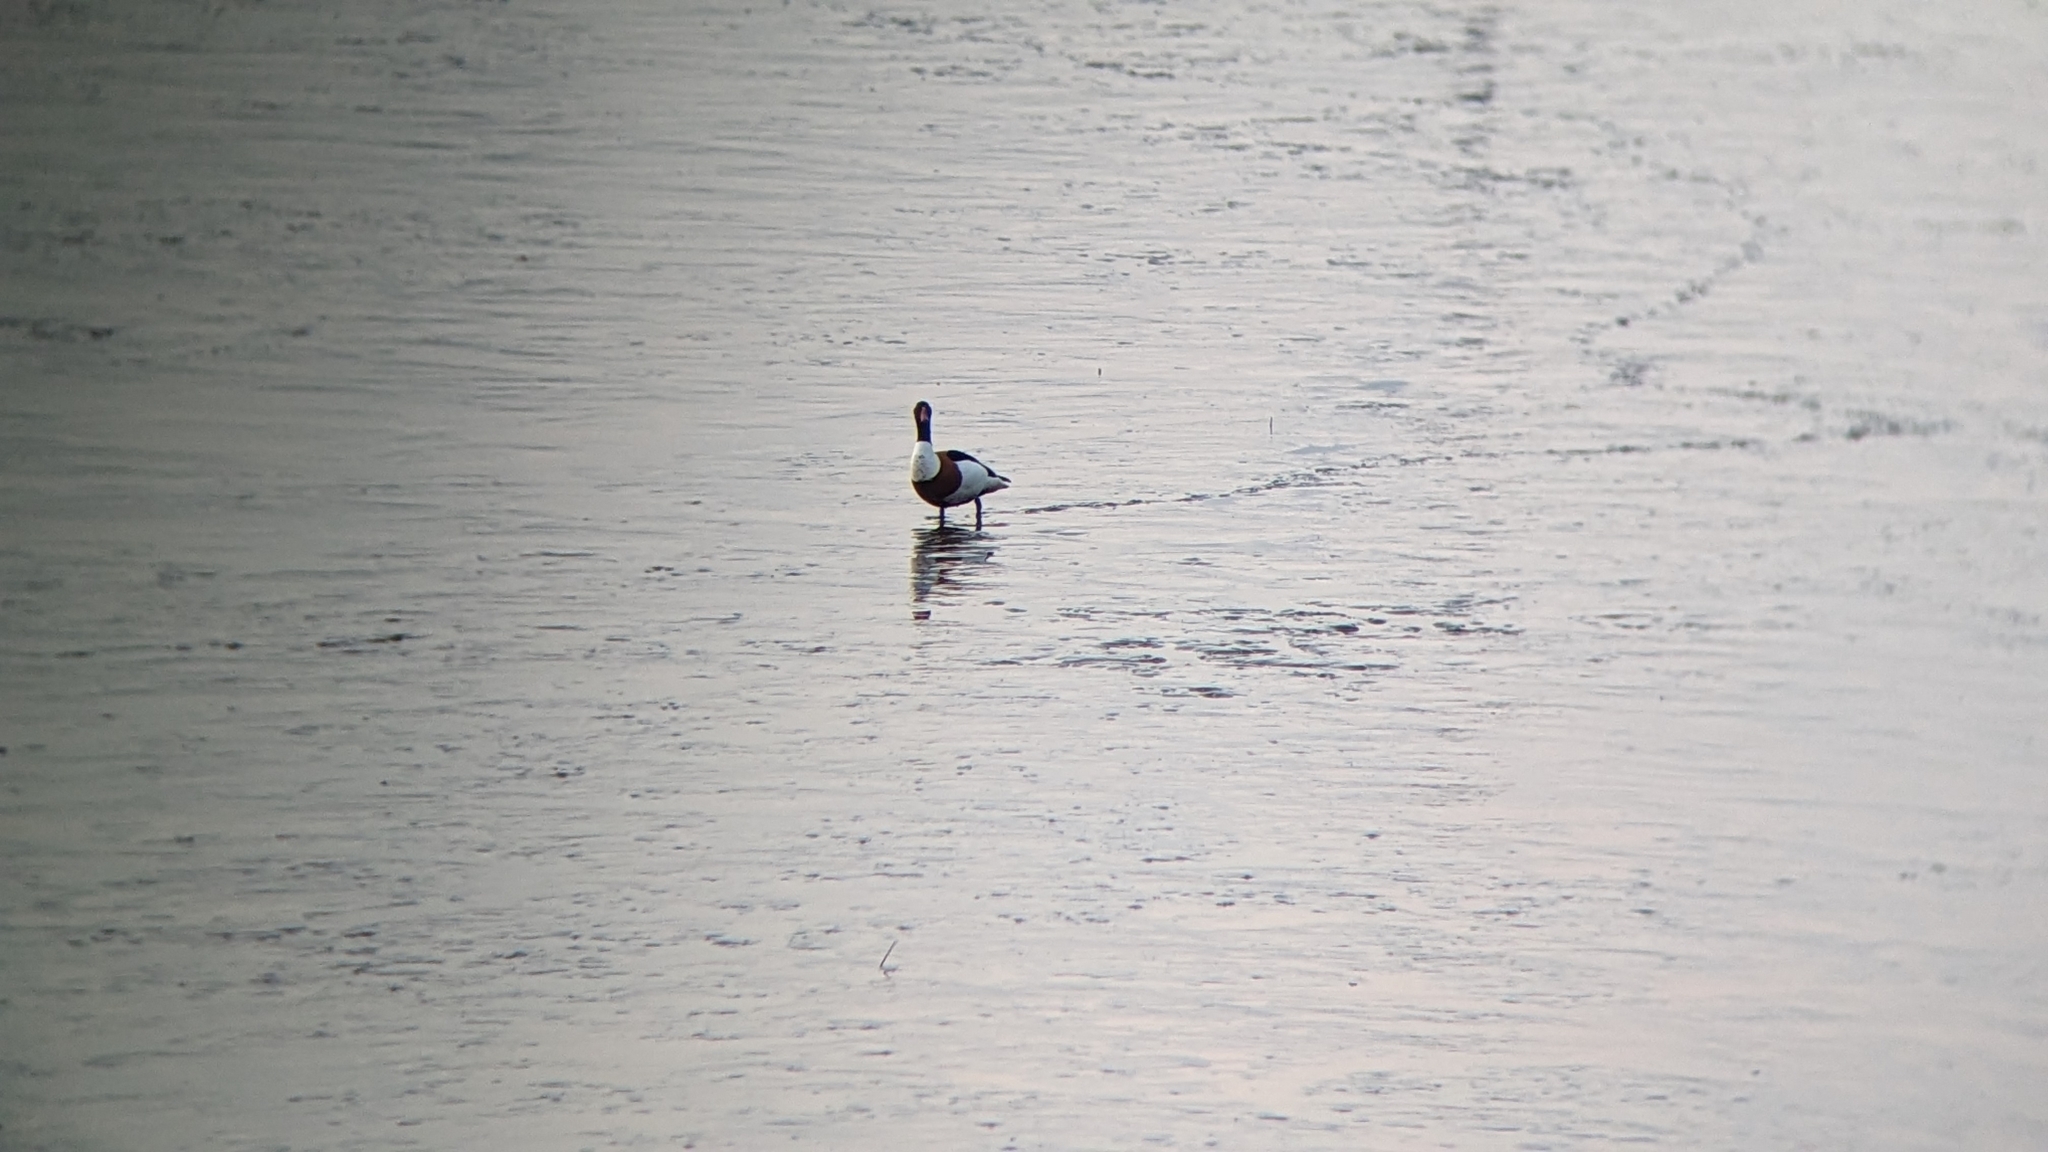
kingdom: Animalia
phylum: Chordata
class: Aves
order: Anseriformes
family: Anatidae
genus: Tadorna
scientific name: Tadorna tadorna
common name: Common shelduck
